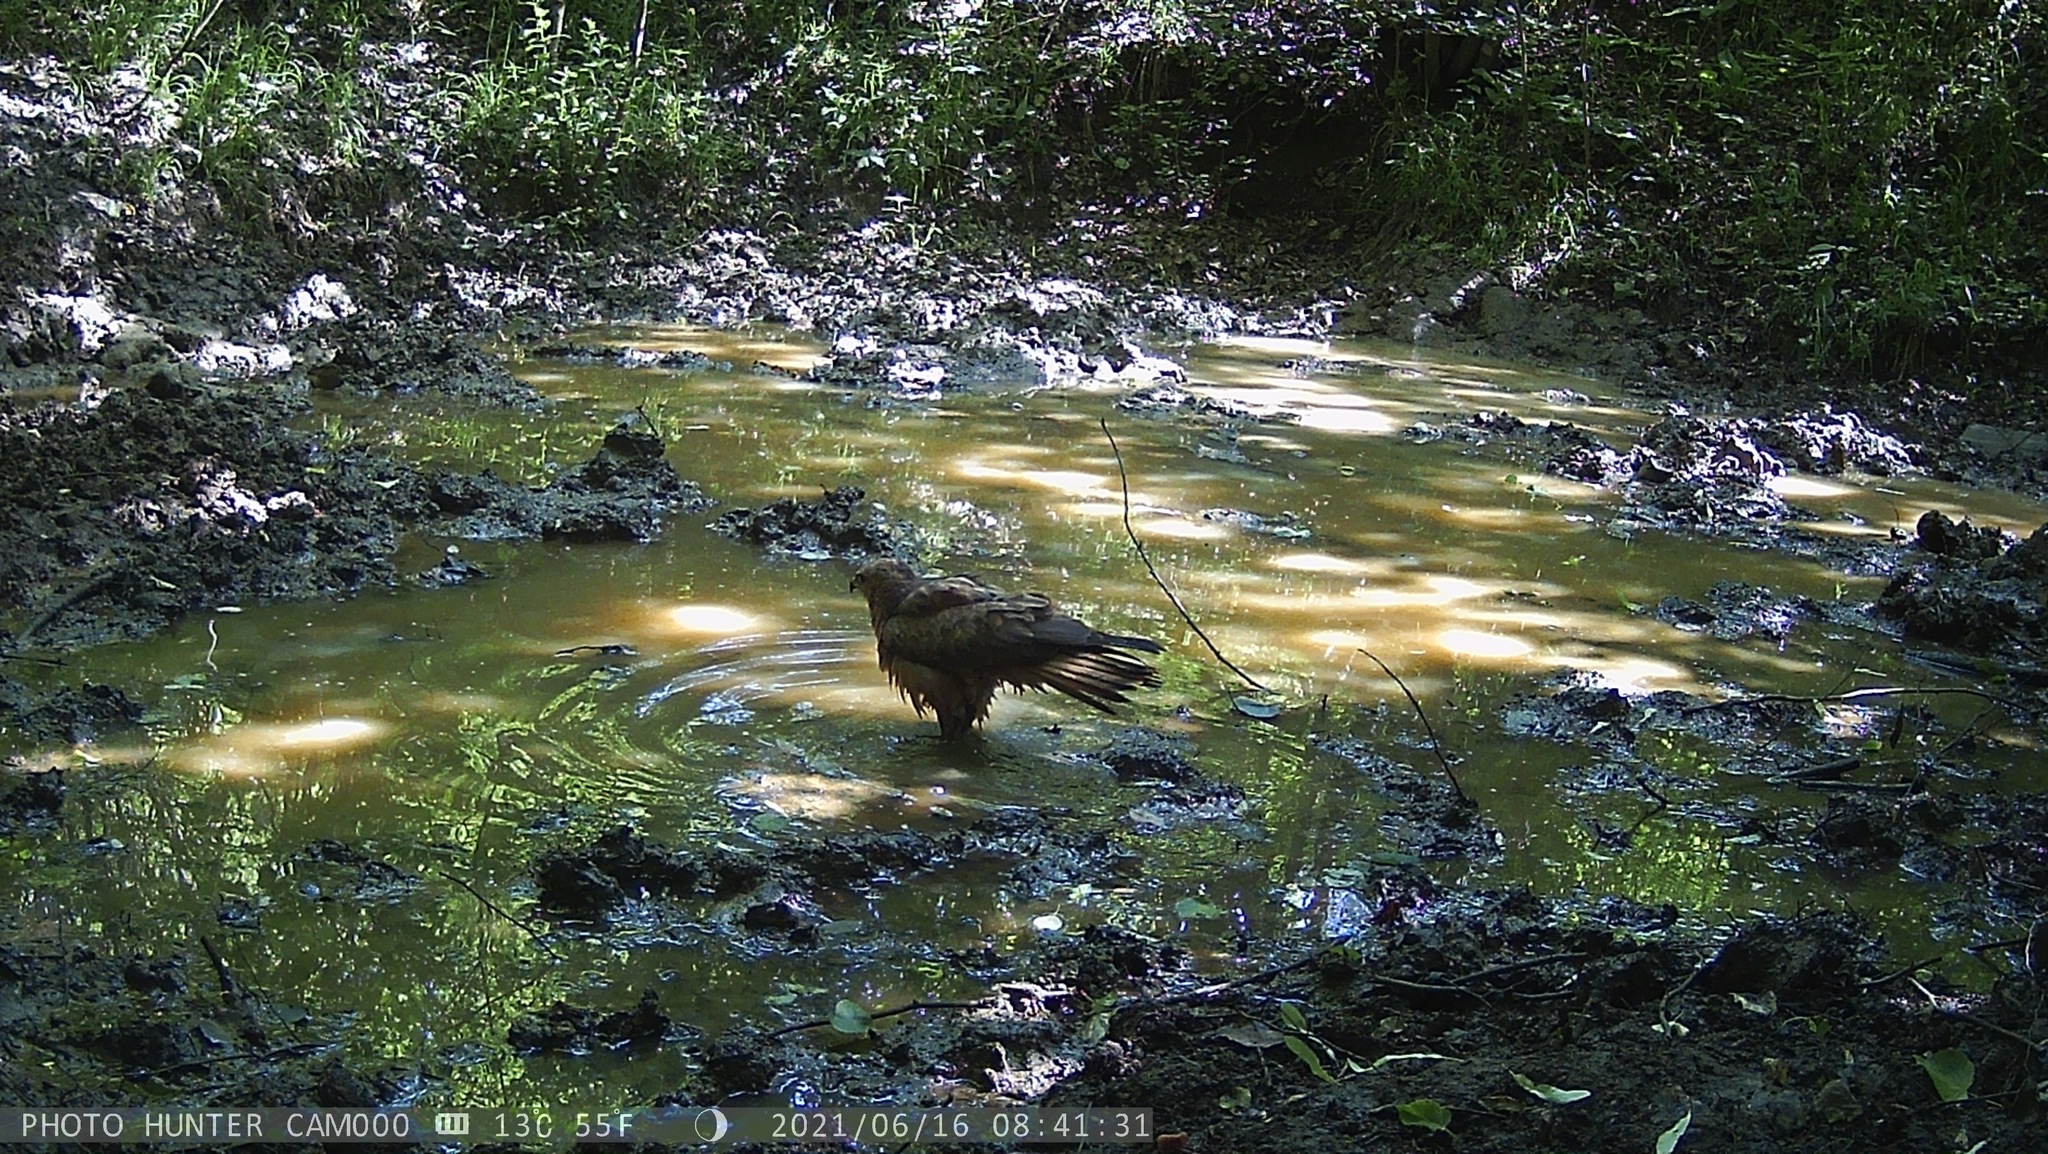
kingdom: Animalia
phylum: Chordata
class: Aves
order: Accipitriformes
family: Accipitridae
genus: Milvus
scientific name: Milvus migrans
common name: Black kite
